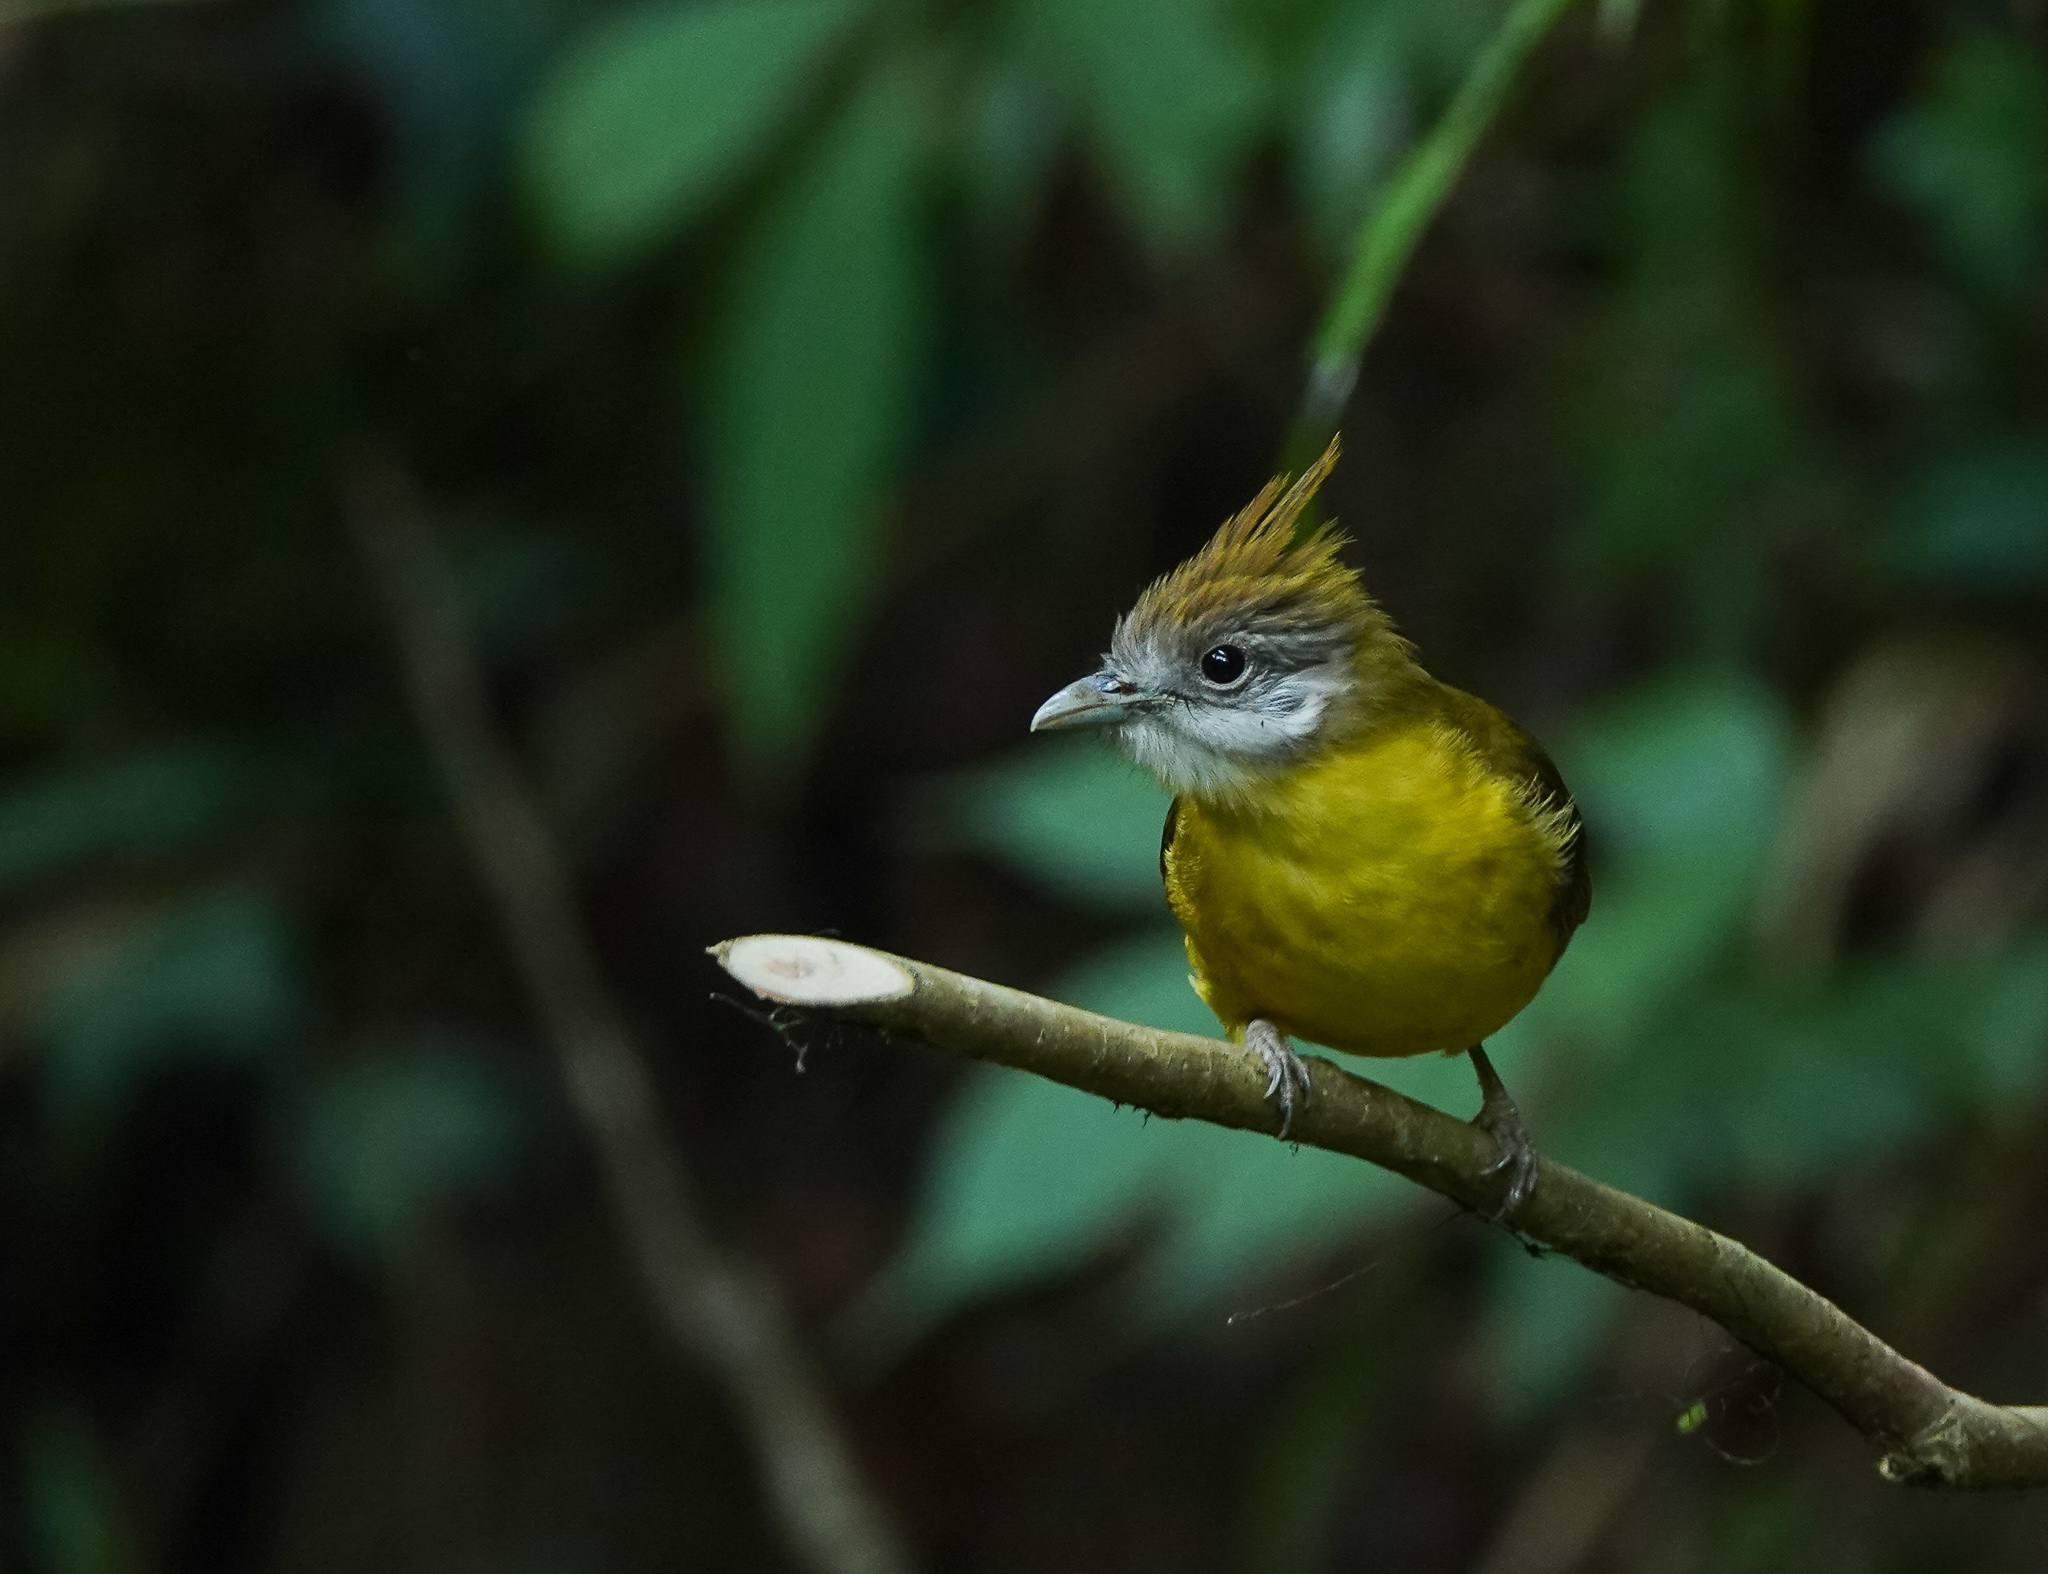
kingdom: Animalia
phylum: Chordata
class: Aves
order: Passeriformes
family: Pycnonotidae
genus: Alophoixus
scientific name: Alophoixus flaveolus
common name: White-throated bulbul
